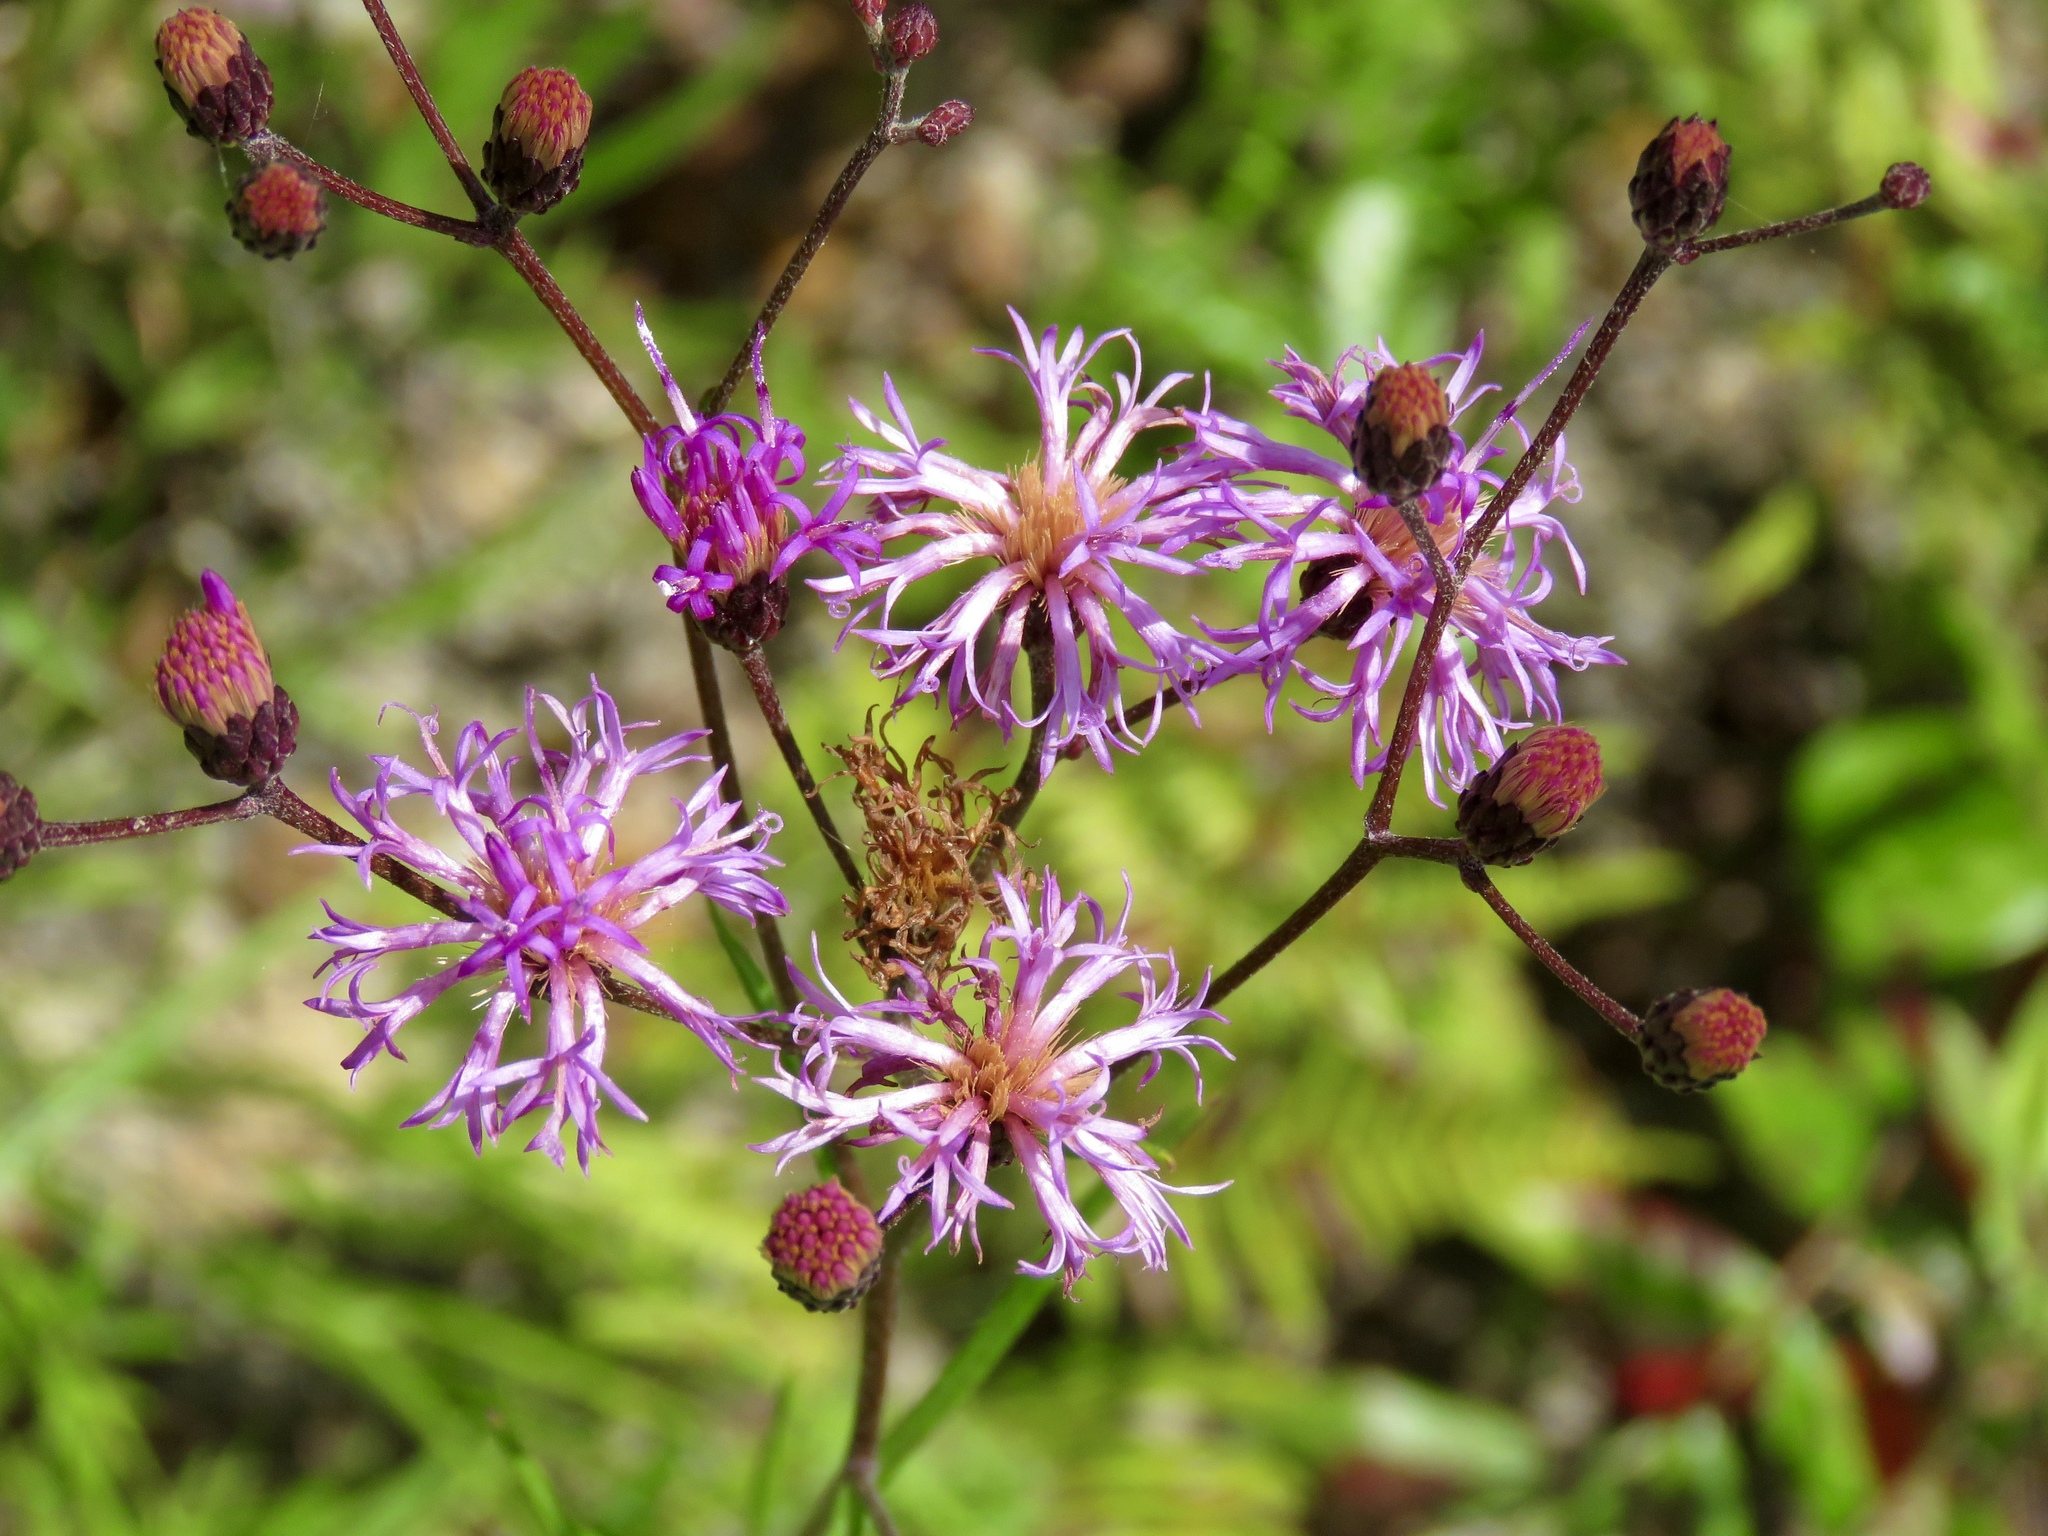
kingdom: Plantae
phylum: Tracheophyta
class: Magnoliopsida
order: Asterales
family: Asteraceae
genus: Vernonia
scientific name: Vernonia texana
